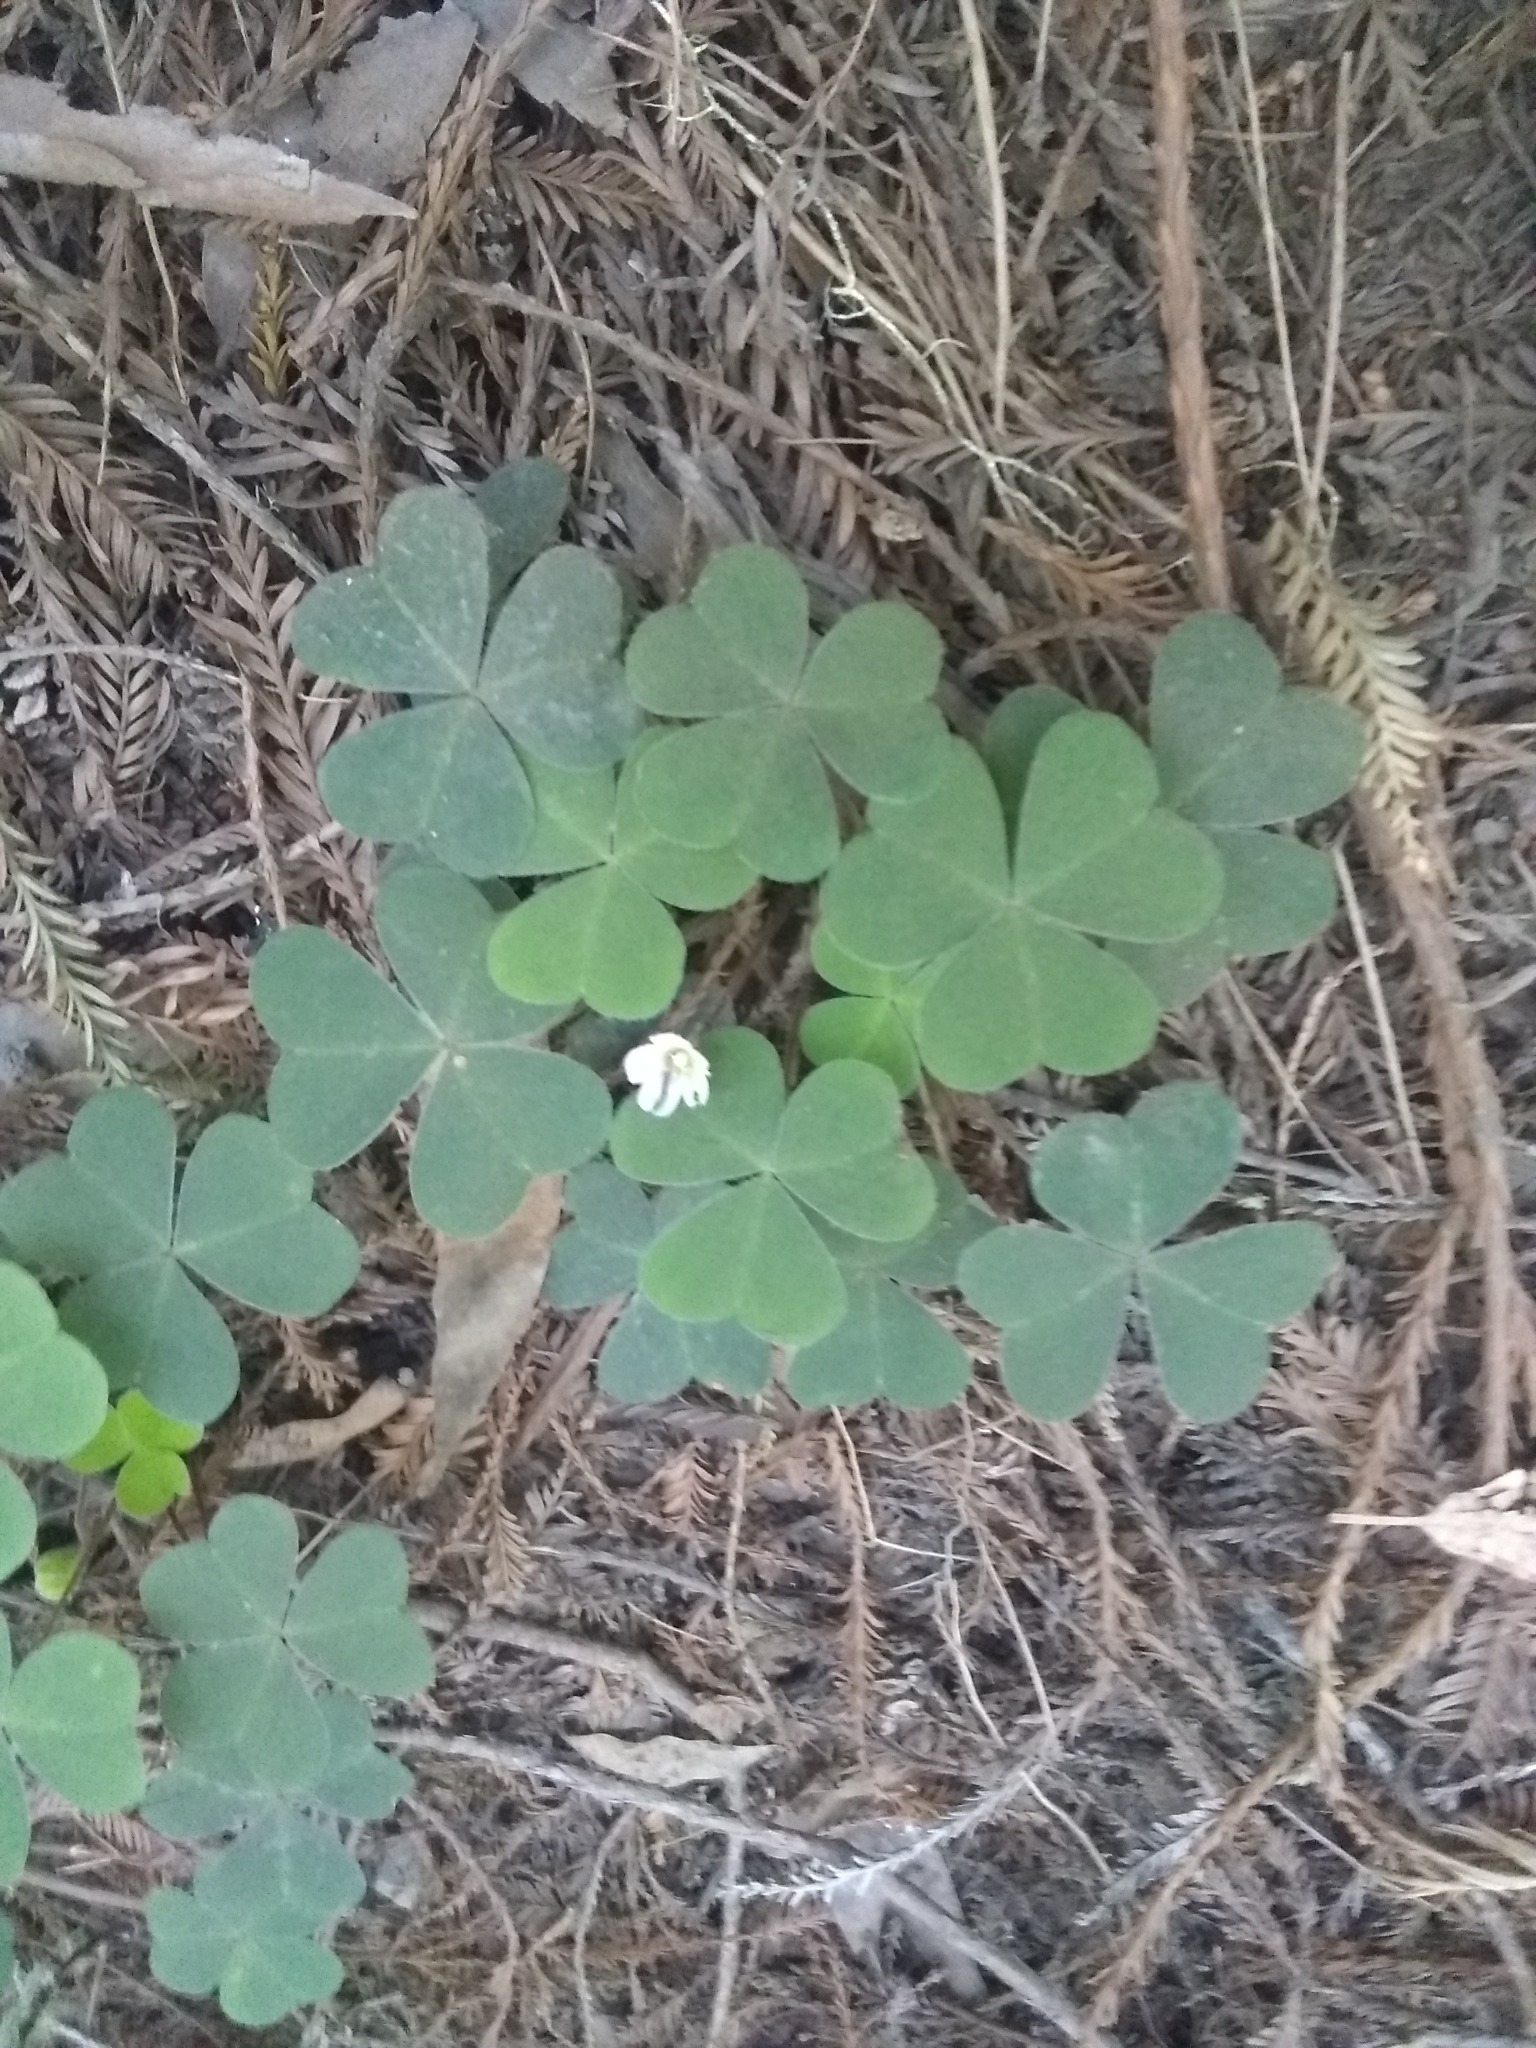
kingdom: Plantae
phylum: Tracheophyta
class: Magnoliopsida
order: Oxalidales
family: Oxalidaceae
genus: Oxalis
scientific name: Oxalis oregana
